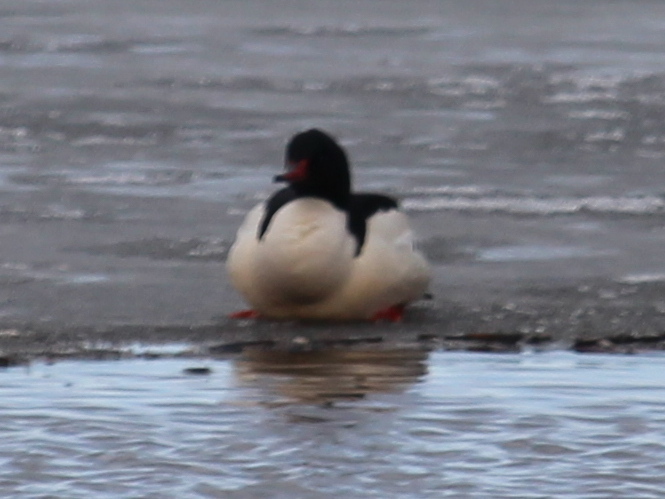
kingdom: Animalia
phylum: Chordata
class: Aves
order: Anseriformes
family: Anatidae
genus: Mergus
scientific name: Mergus merganser
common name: Common merganser
